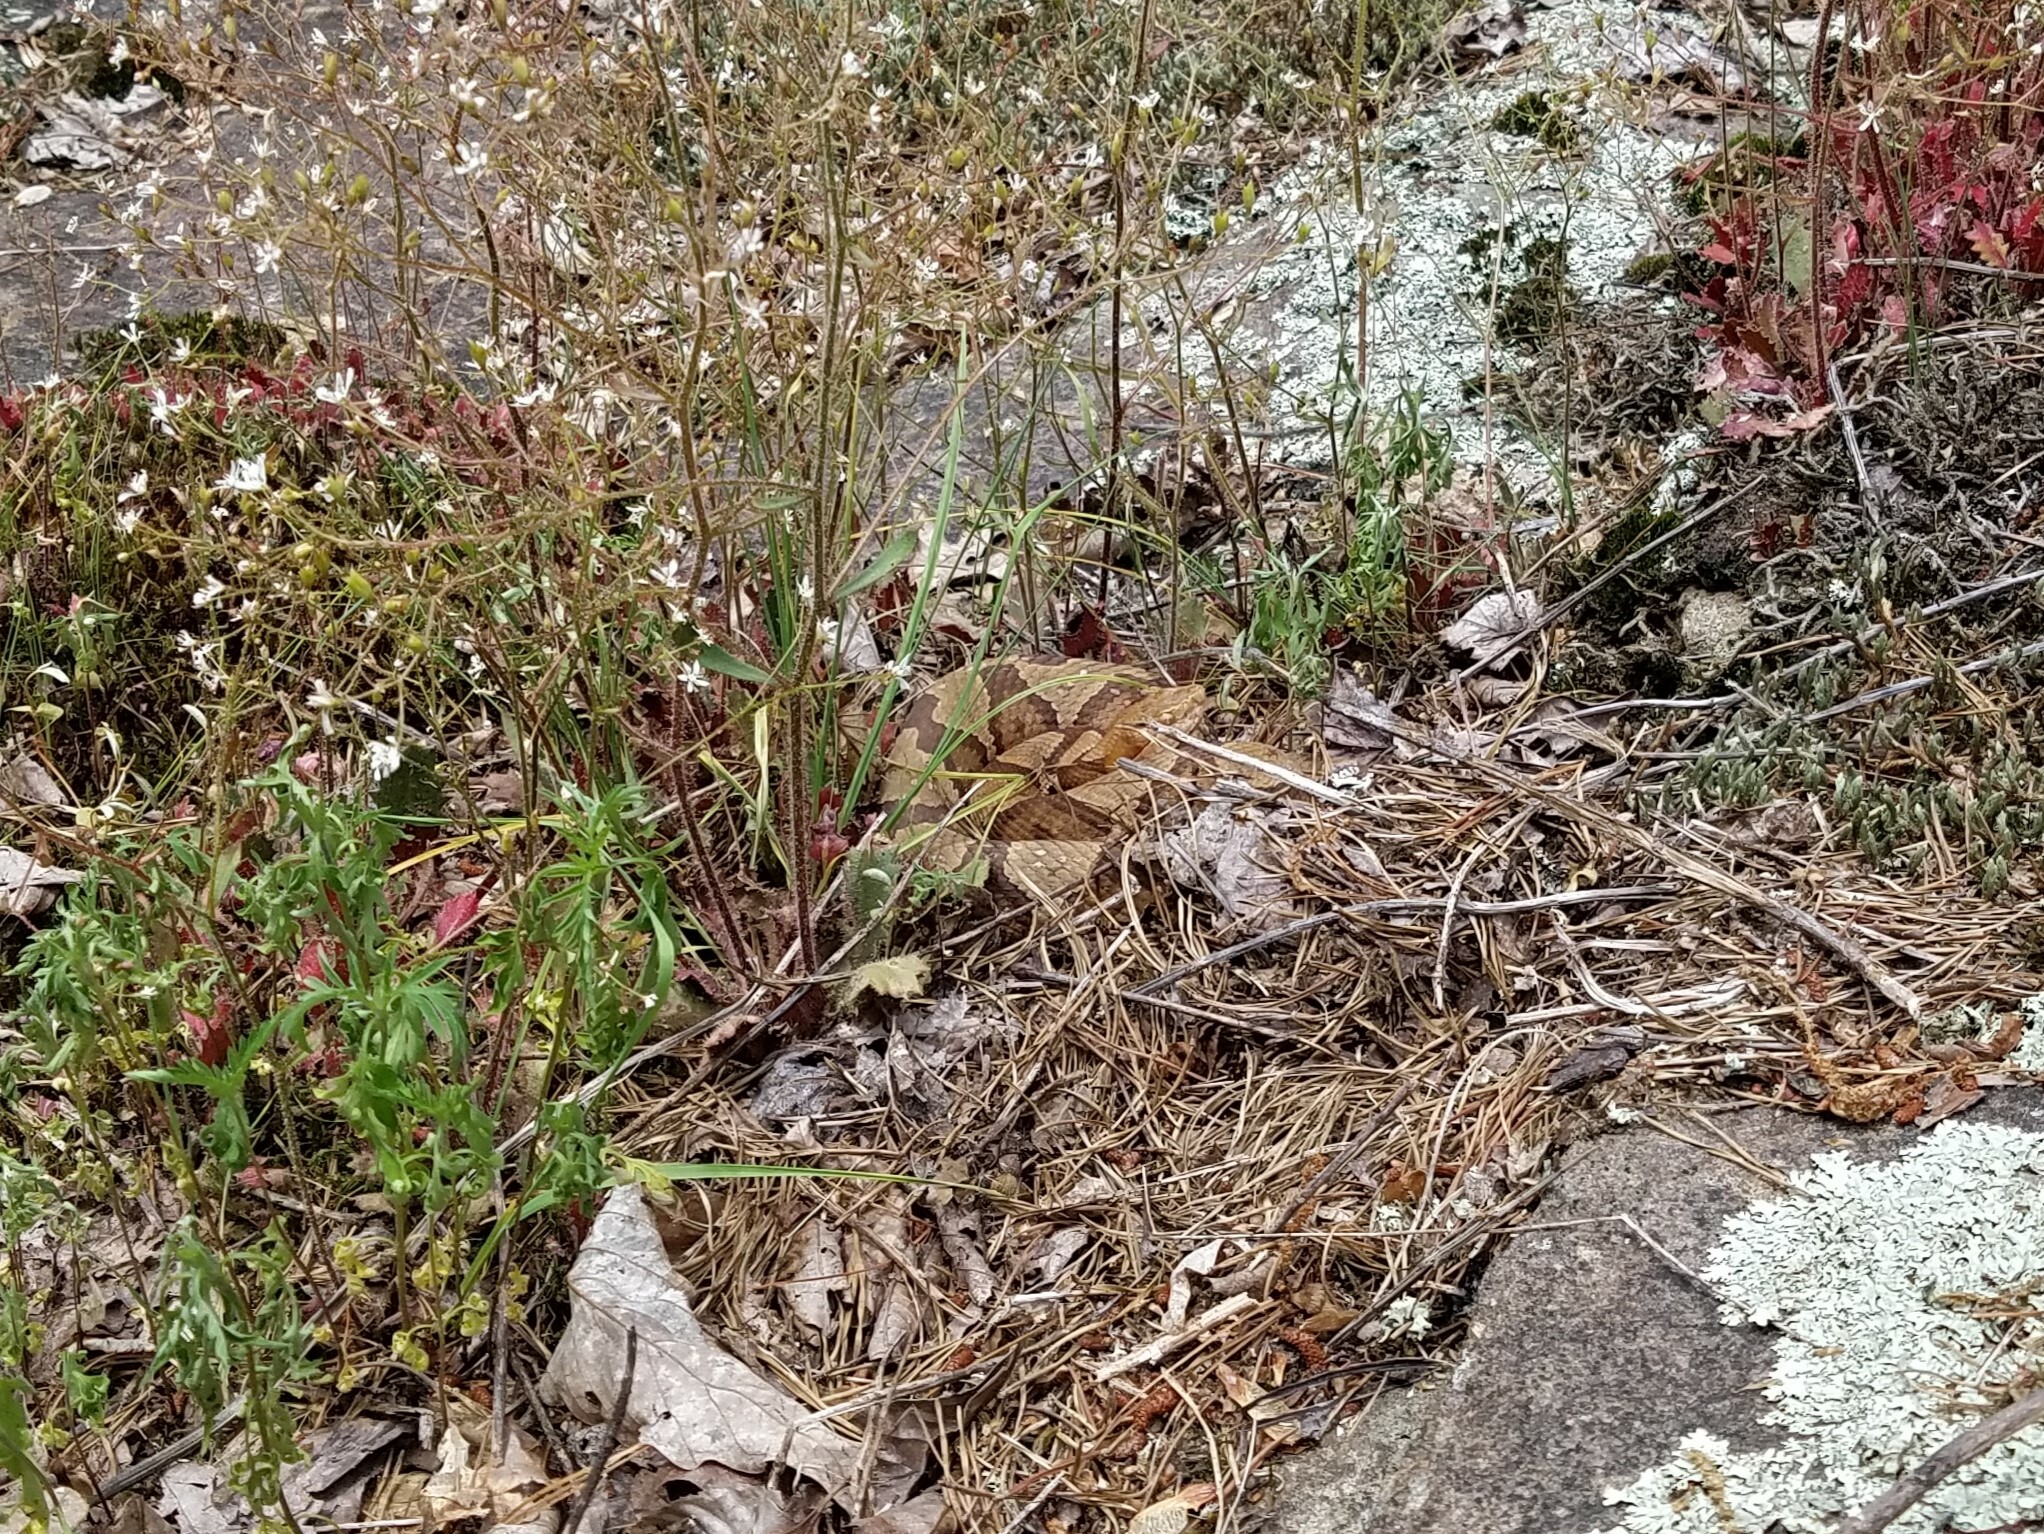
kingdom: Animalia
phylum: Chordata
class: Squamata
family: Viperidae
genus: Agkistrodon
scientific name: Agkistrodon contortrix
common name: Northern copperhead
